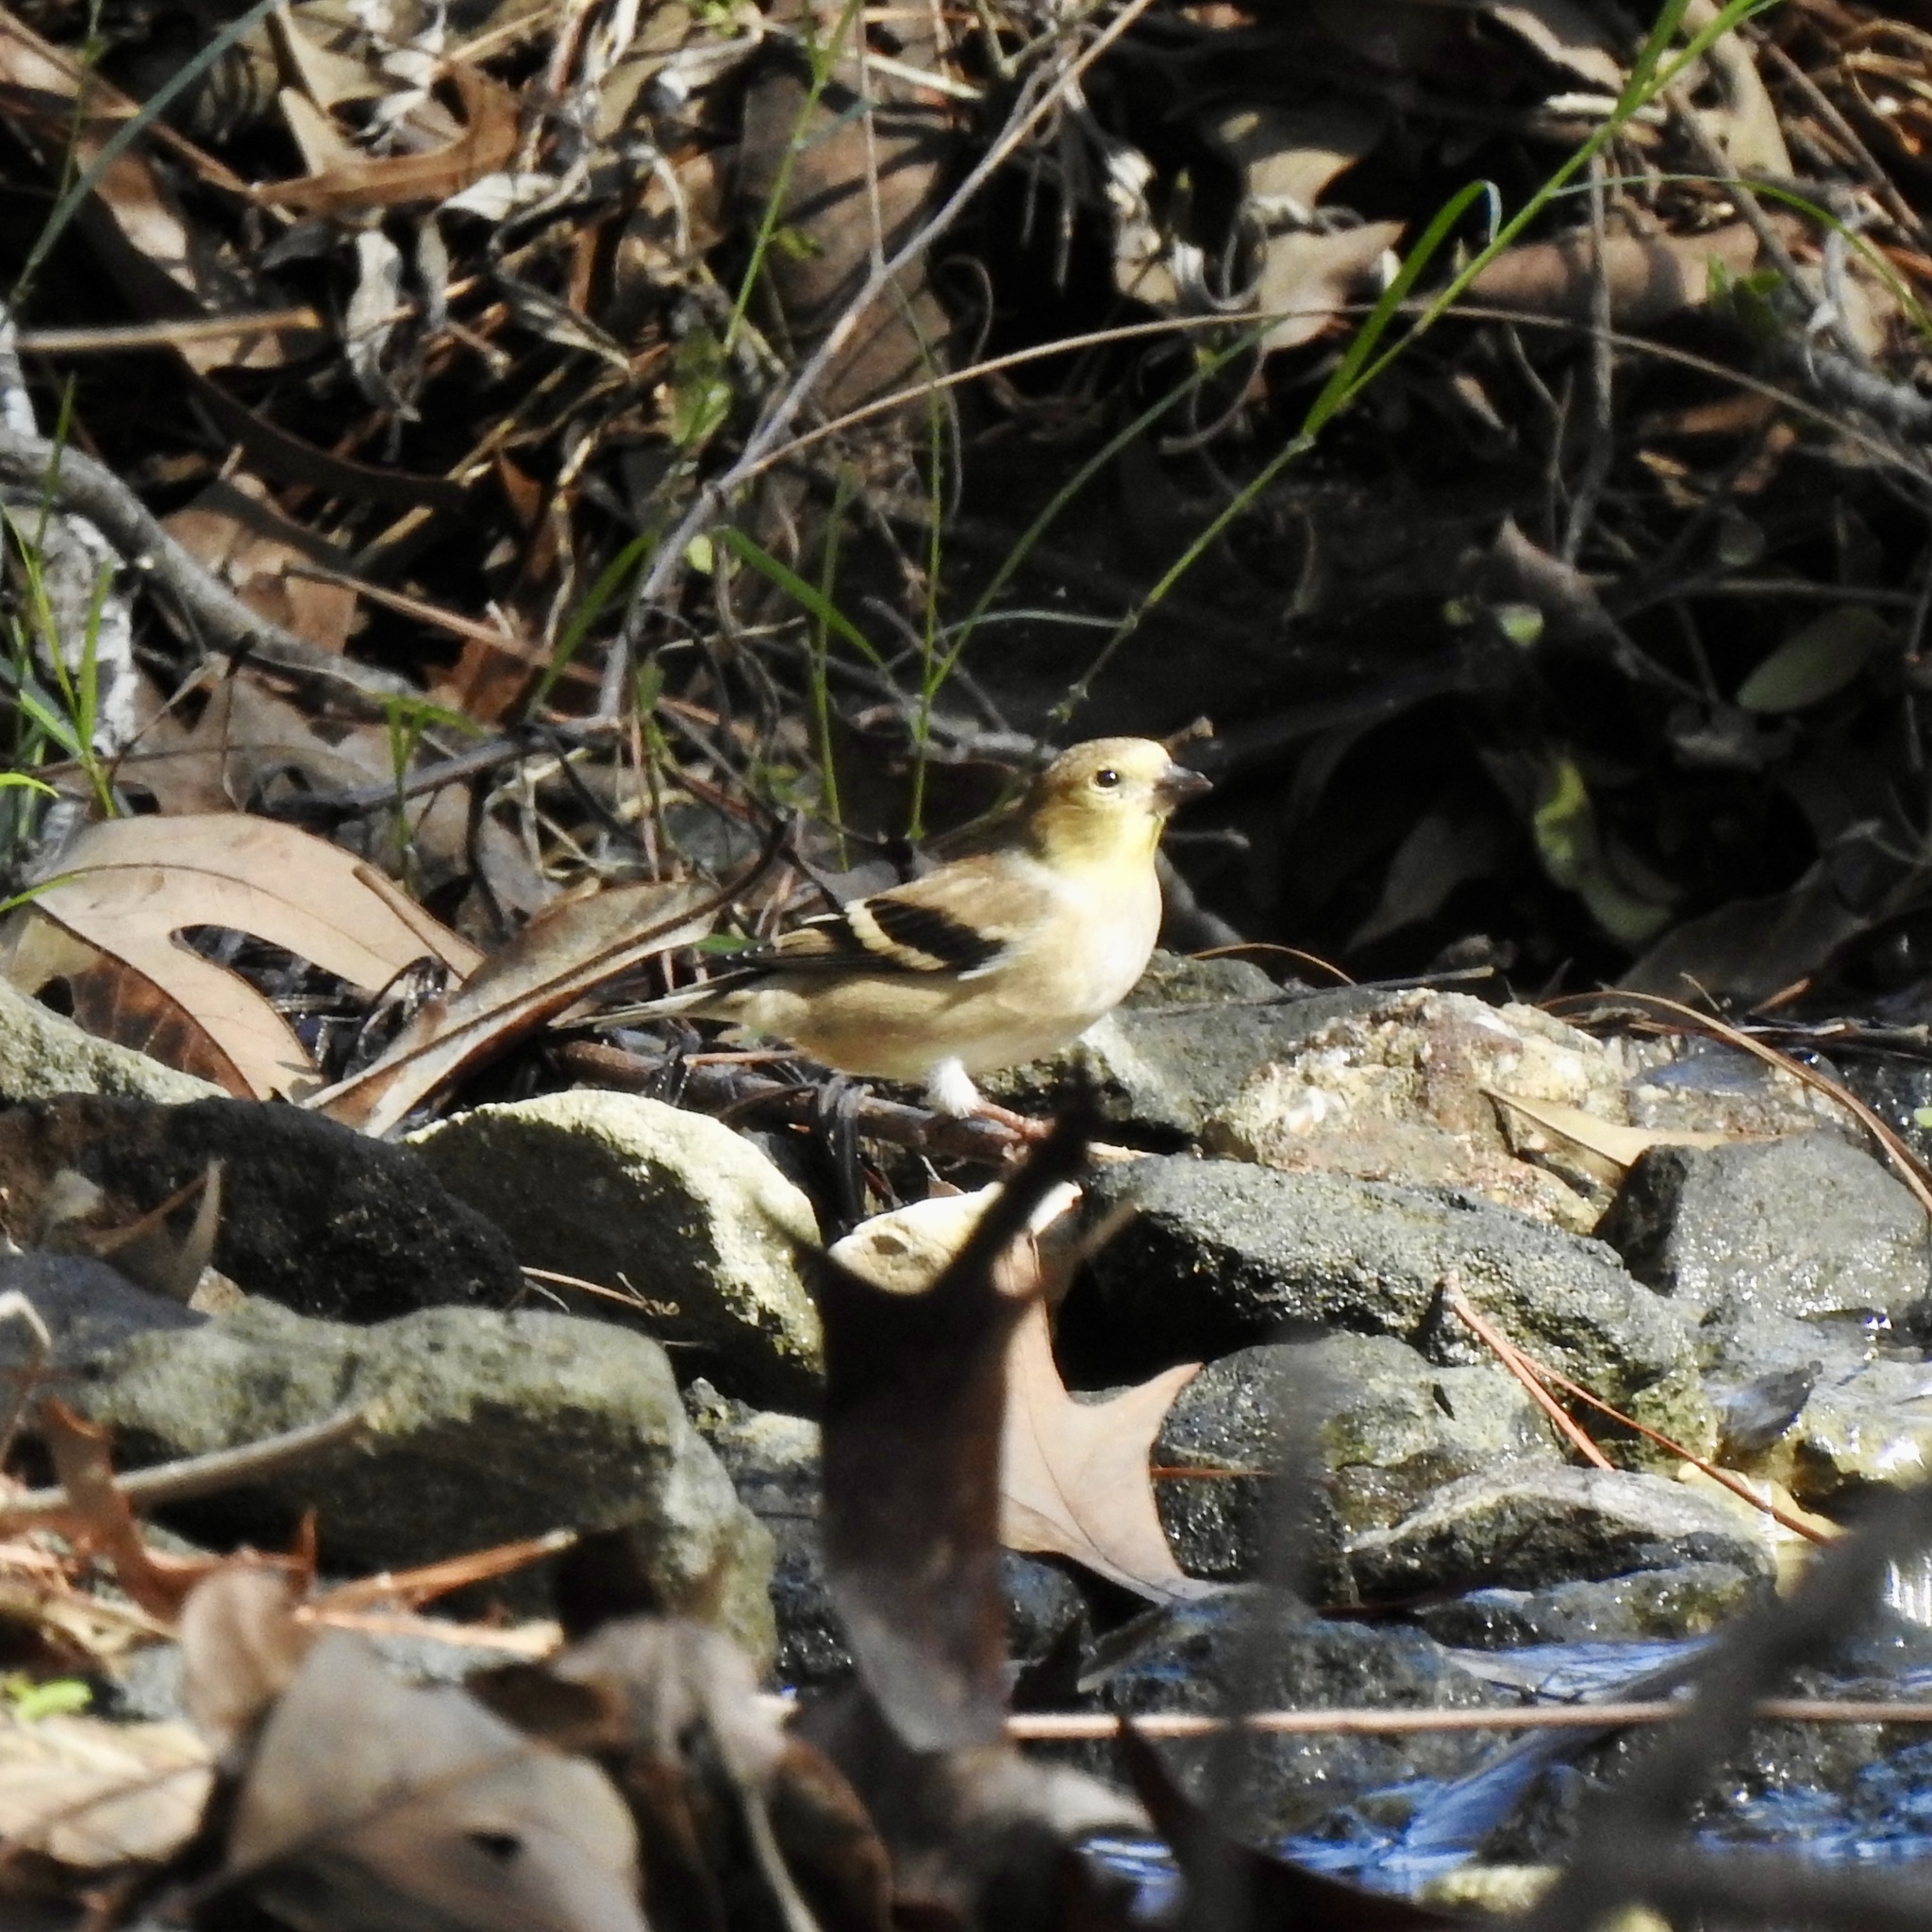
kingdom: Animalia
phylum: Chordata
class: Aves
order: Passeriformes
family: Fringillidae
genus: Spinus
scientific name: Spinus tristis
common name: American goldfinch
